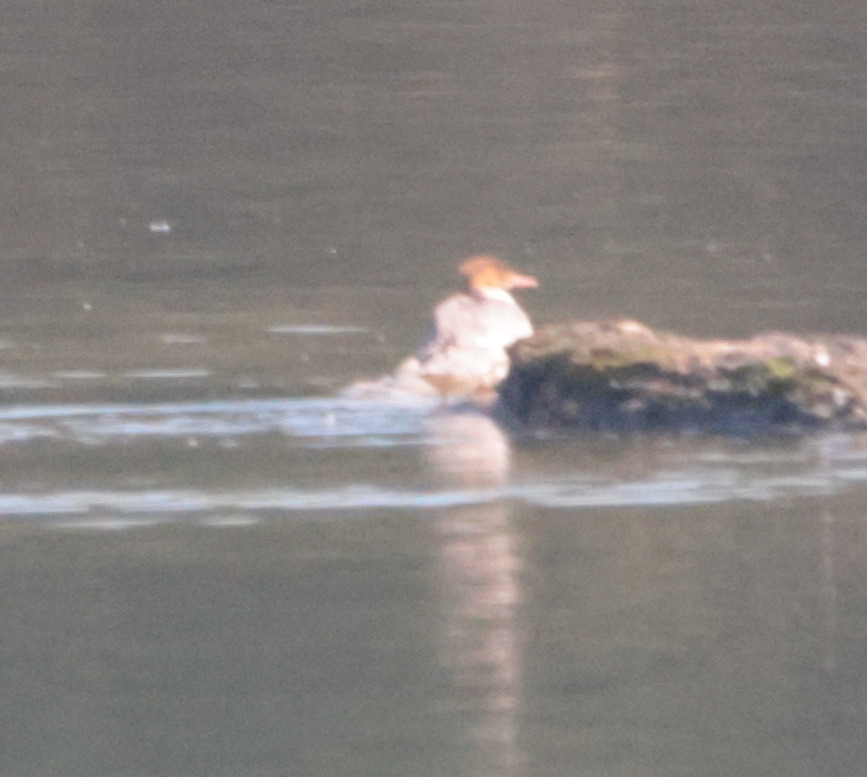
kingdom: Animalia
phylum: Chordata
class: Aves
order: Anseriformes
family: Anatidae
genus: Mergus
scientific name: Mergus merganser
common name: Common merganser
